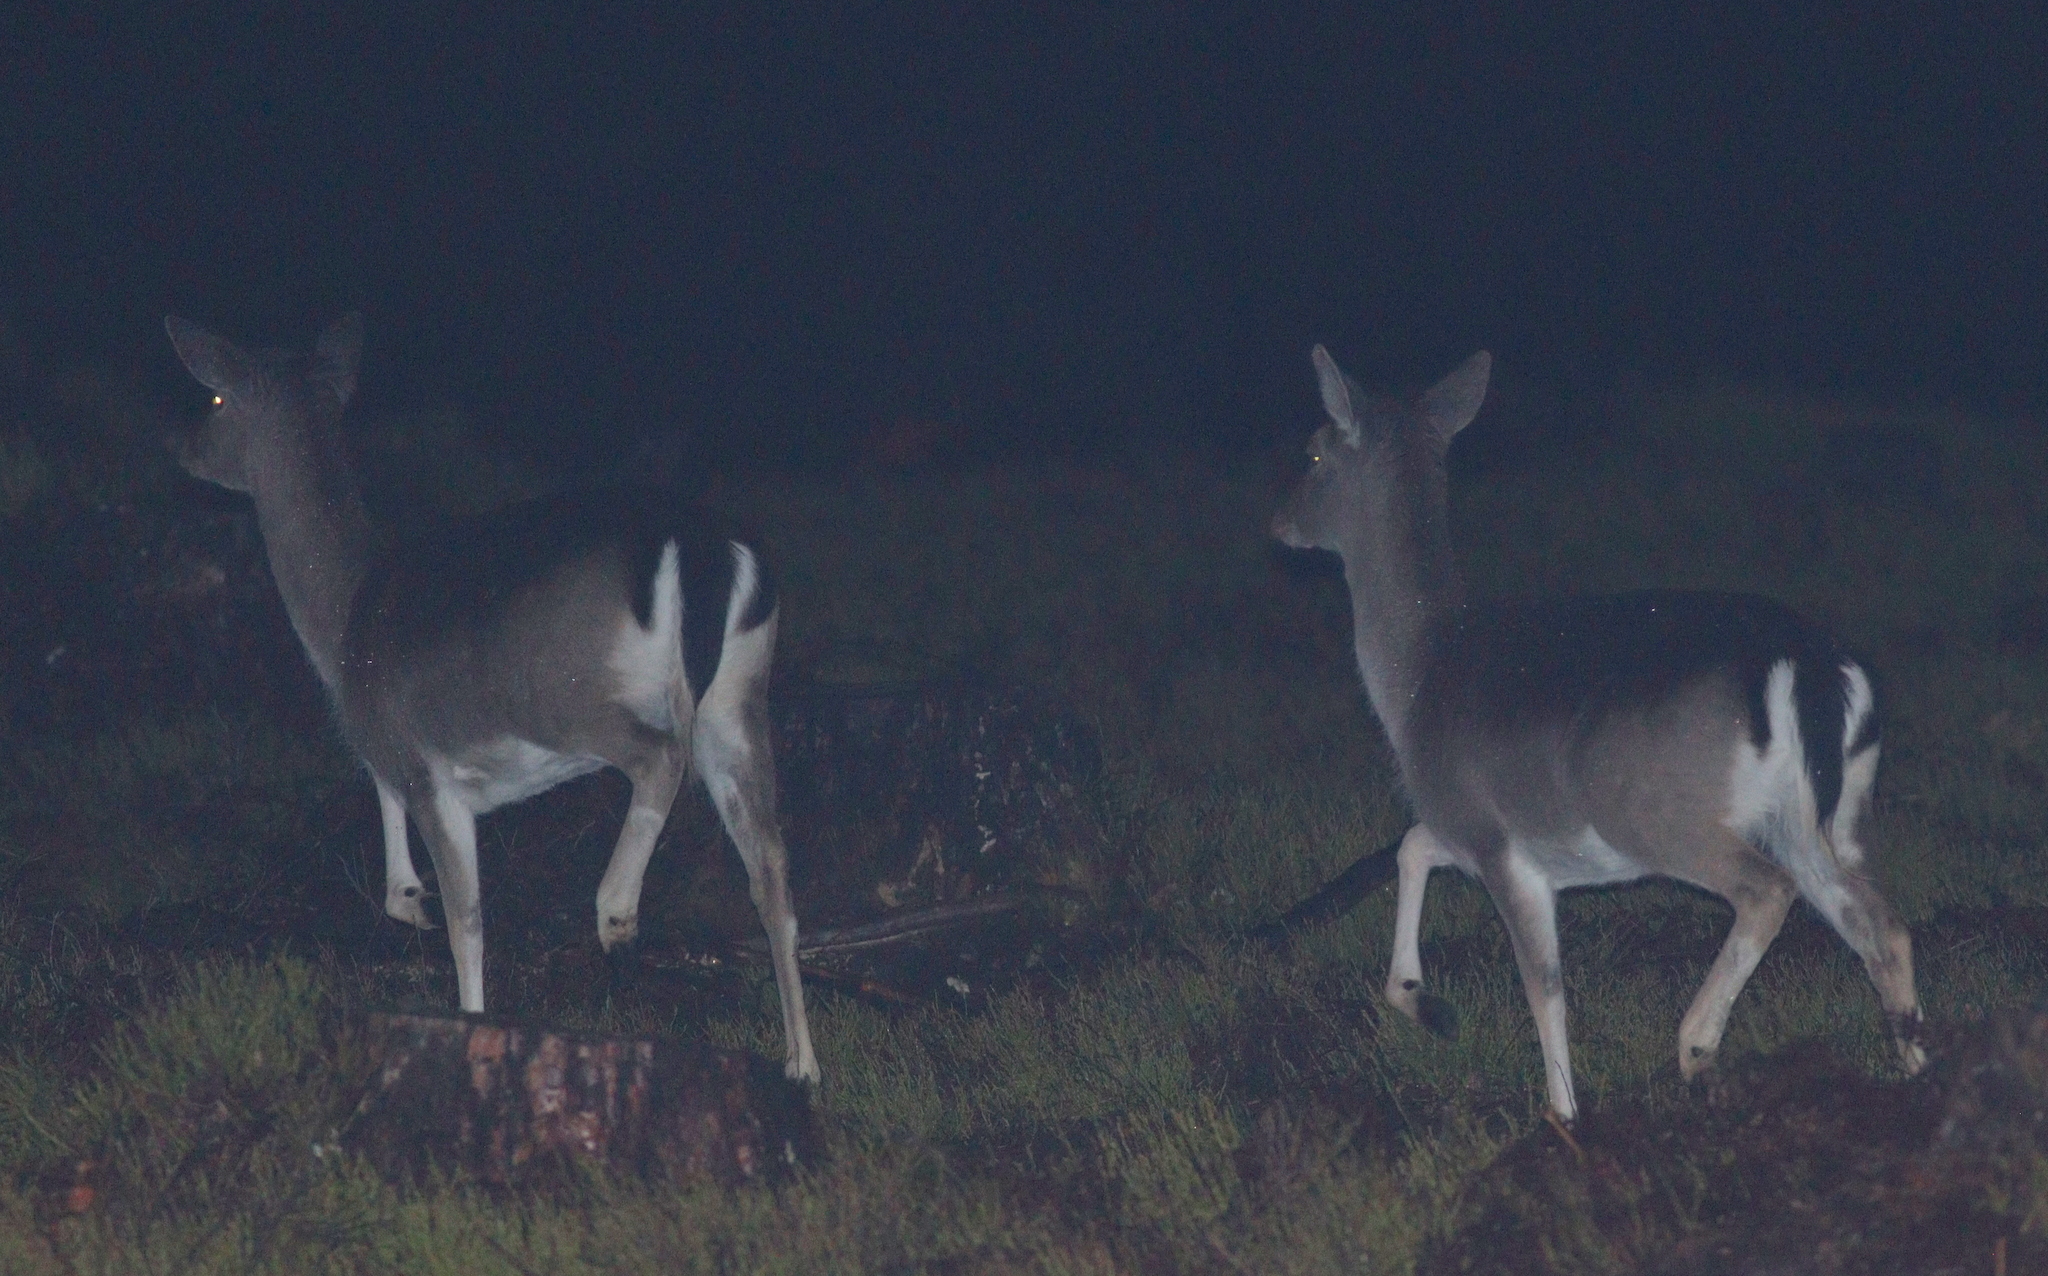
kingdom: Animalia
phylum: Chordata
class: Mammalia
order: Artiodactyla
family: Cervidae
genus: Dama
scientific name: Dama dama
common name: Fallow deer
